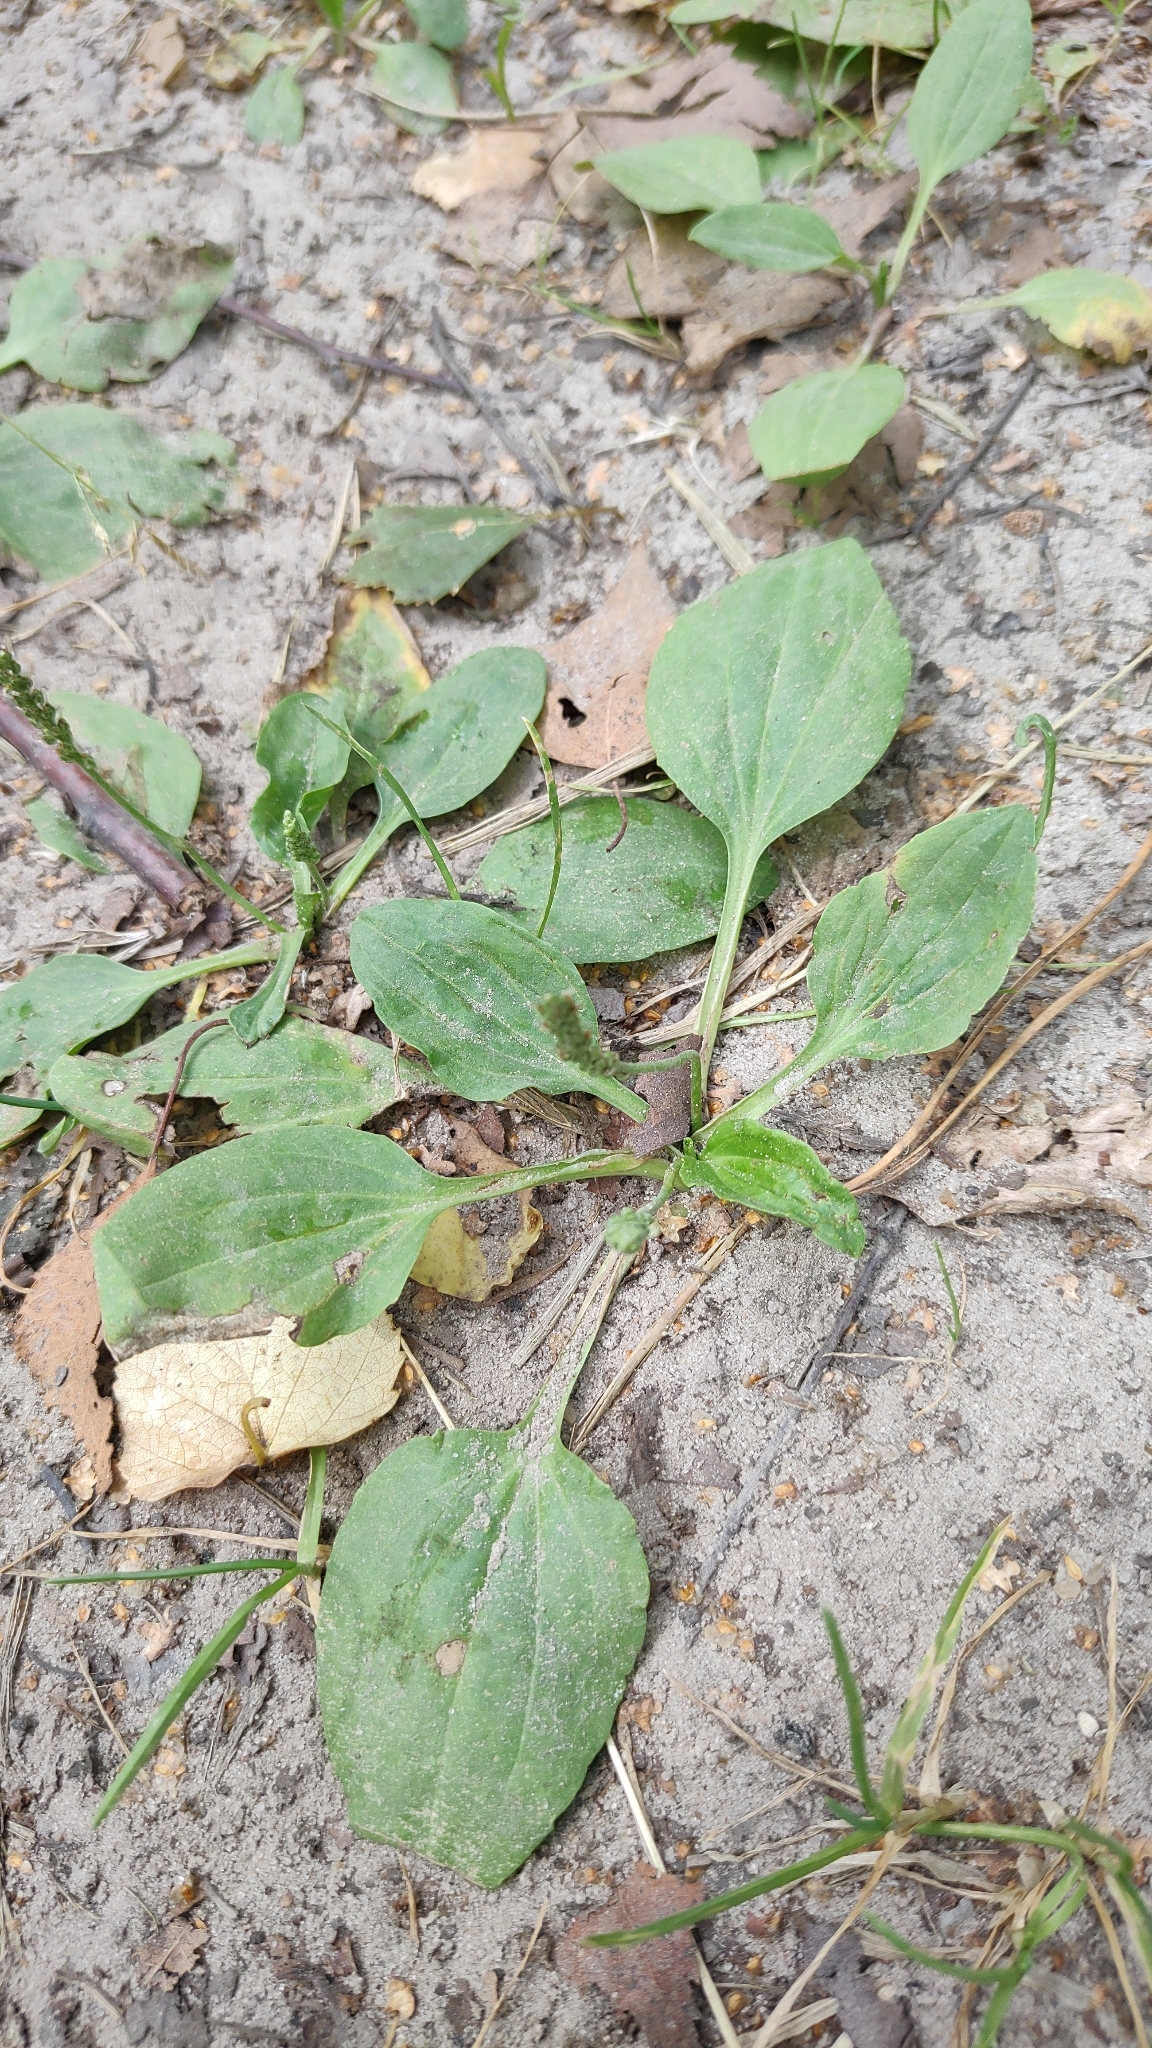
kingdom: Plantae
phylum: Tracheophyta
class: Magnoliopsida
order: Lamiales
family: Plantaginaceae
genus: Plantago
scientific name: Plantago major
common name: Common plantain
